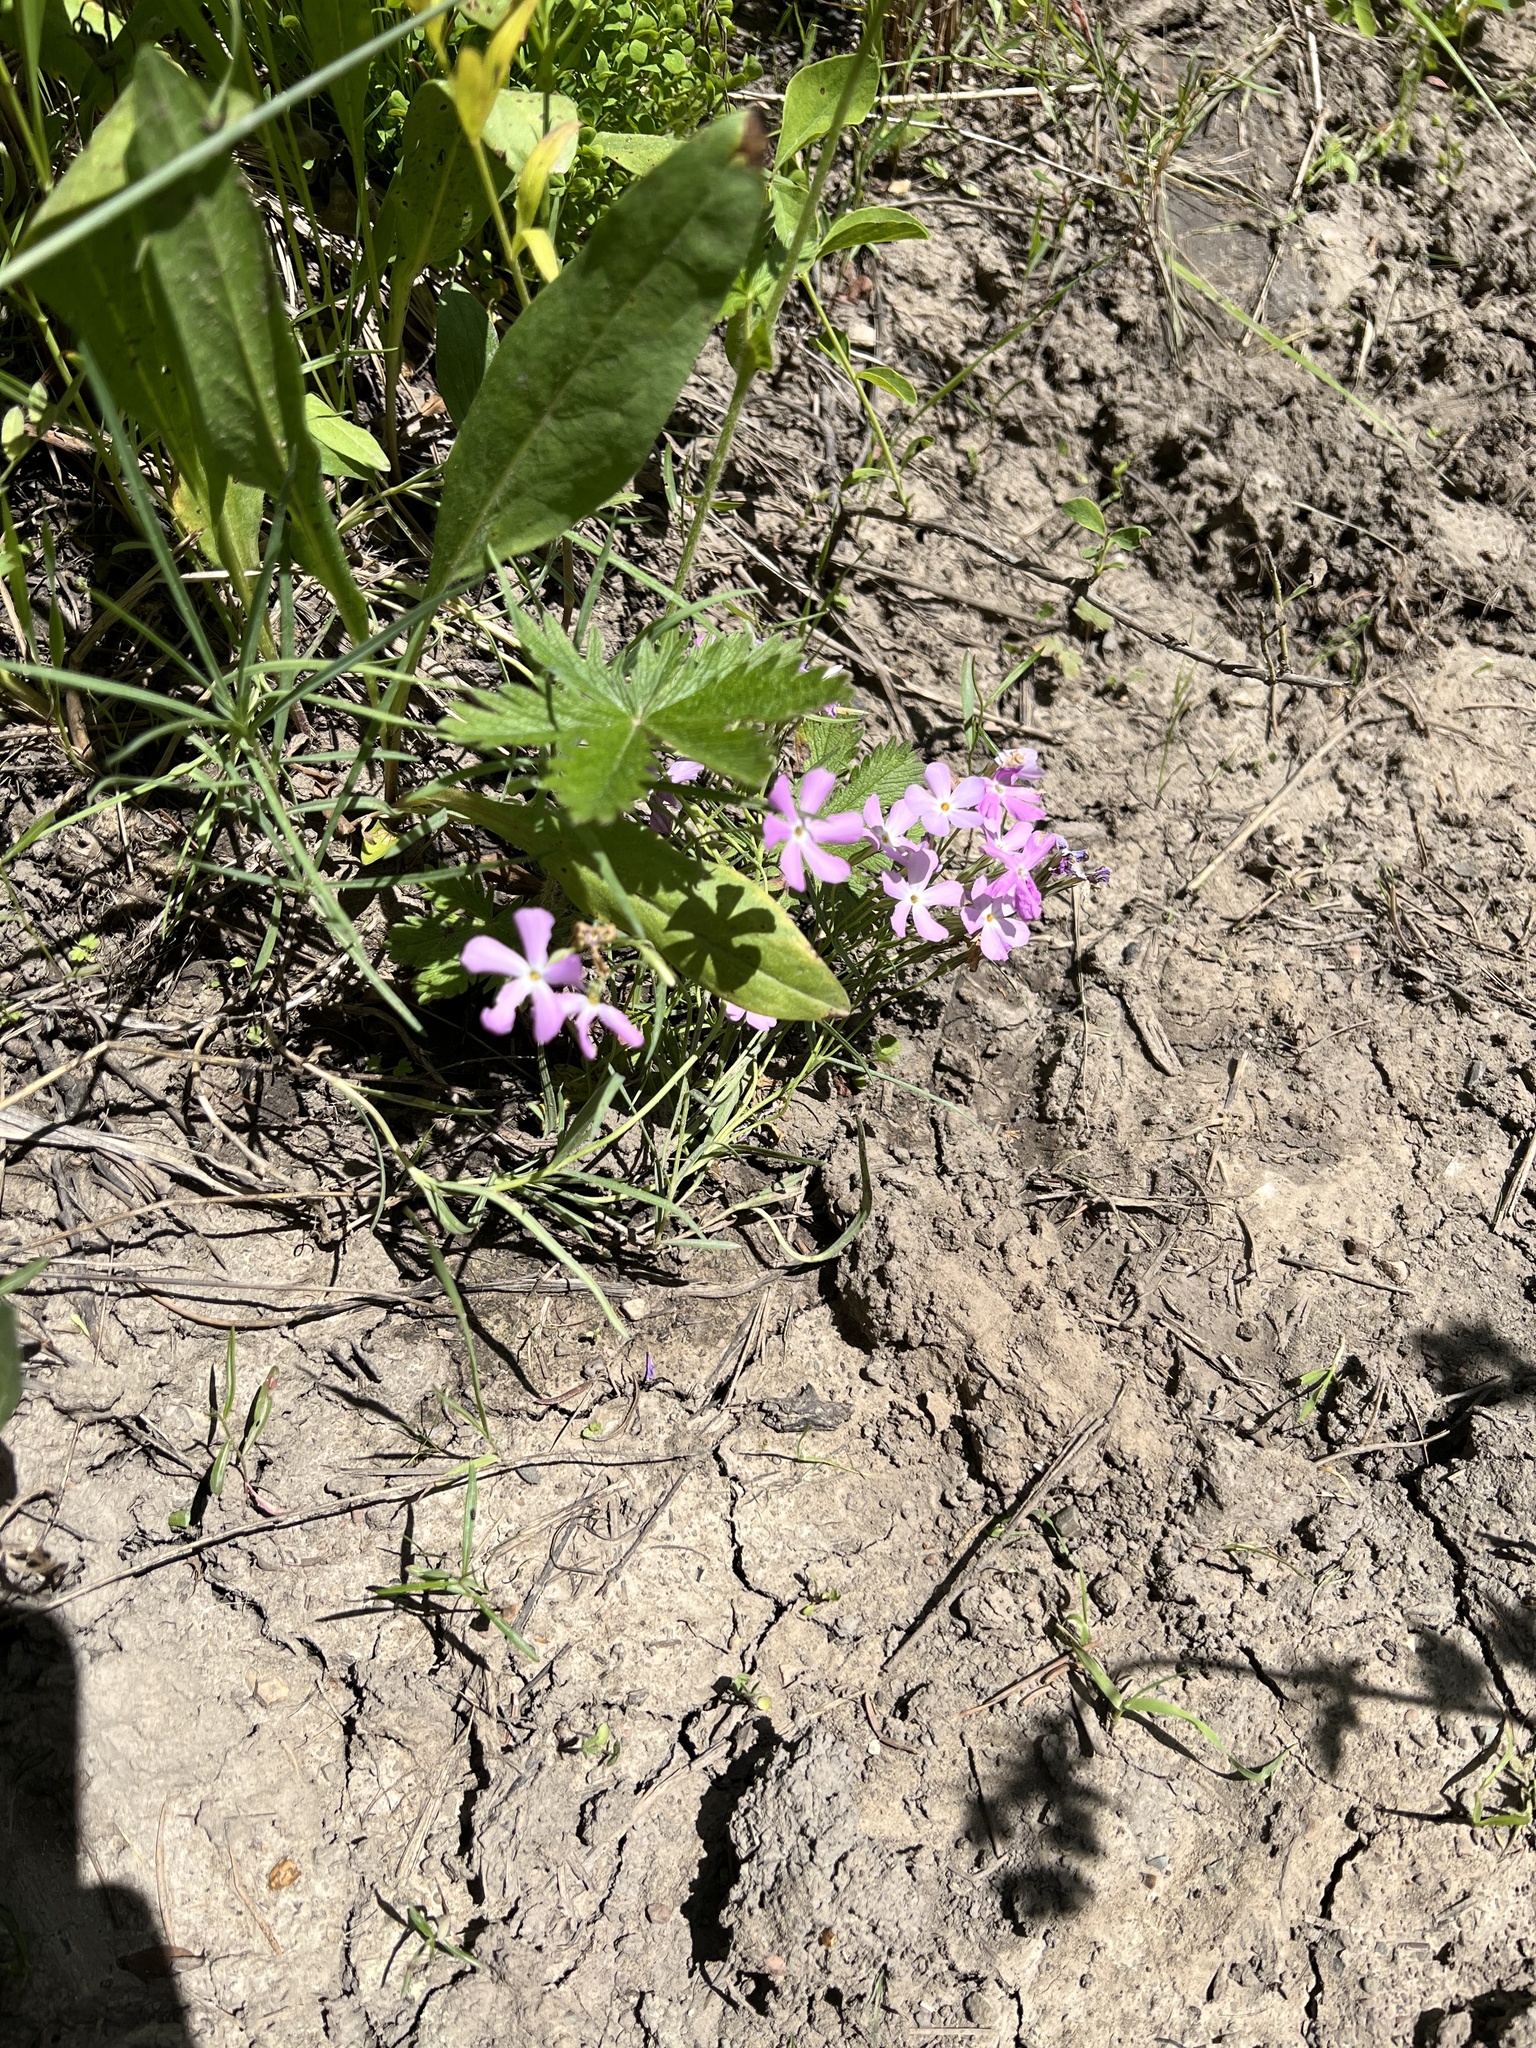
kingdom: Plantae
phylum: Tracheophyta
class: Magnoliopsida
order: Ericales
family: Polemoniaceae
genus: Phlox
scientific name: Phlox longifolia
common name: Longleaf phlox
